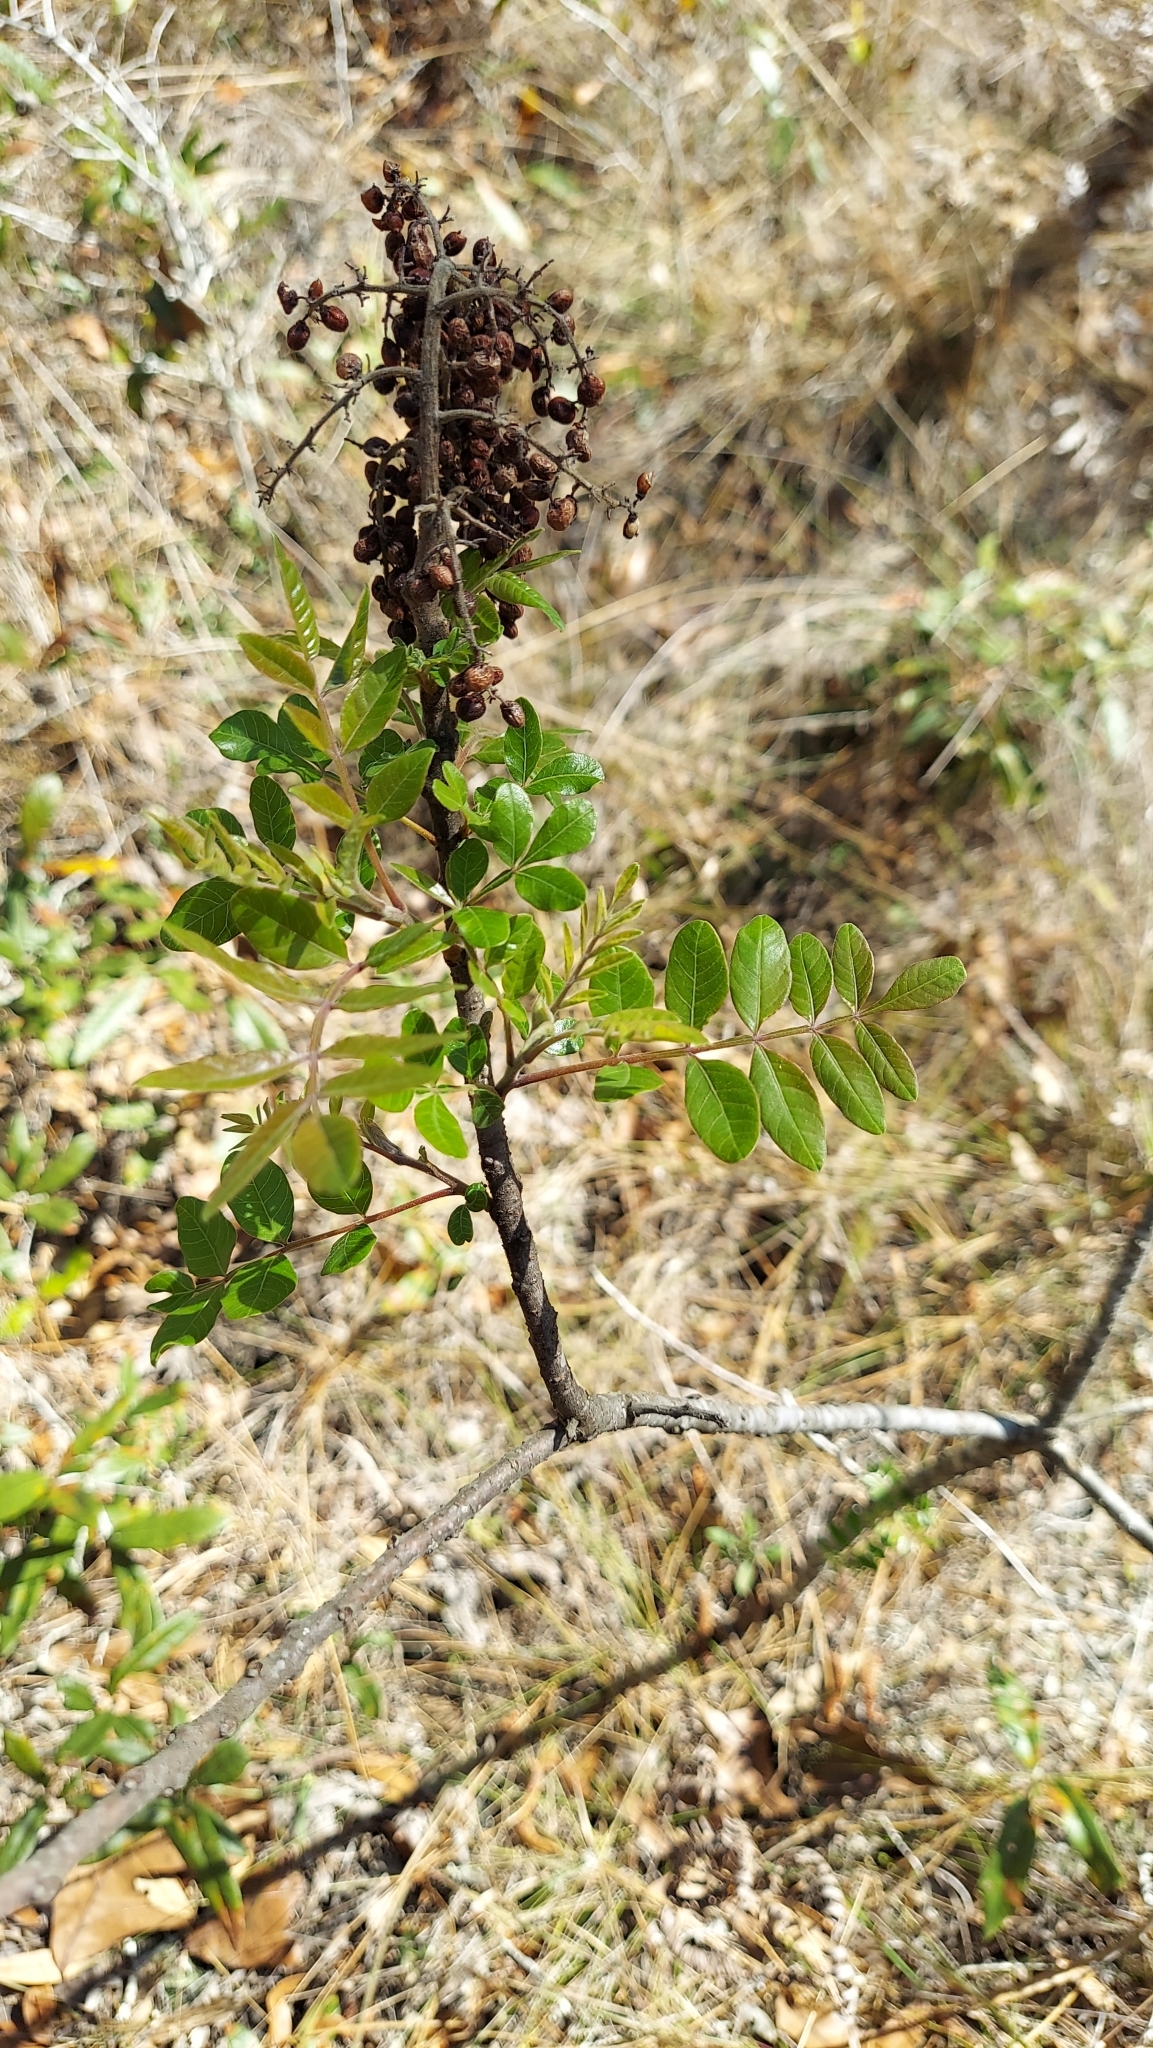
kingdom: Plantae
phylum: Tracheophyta
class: Magnoliopsida
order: Sapindales
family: Anacardiaceae
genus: Rhus
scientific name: Rhus copallina
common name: Shining sumac
